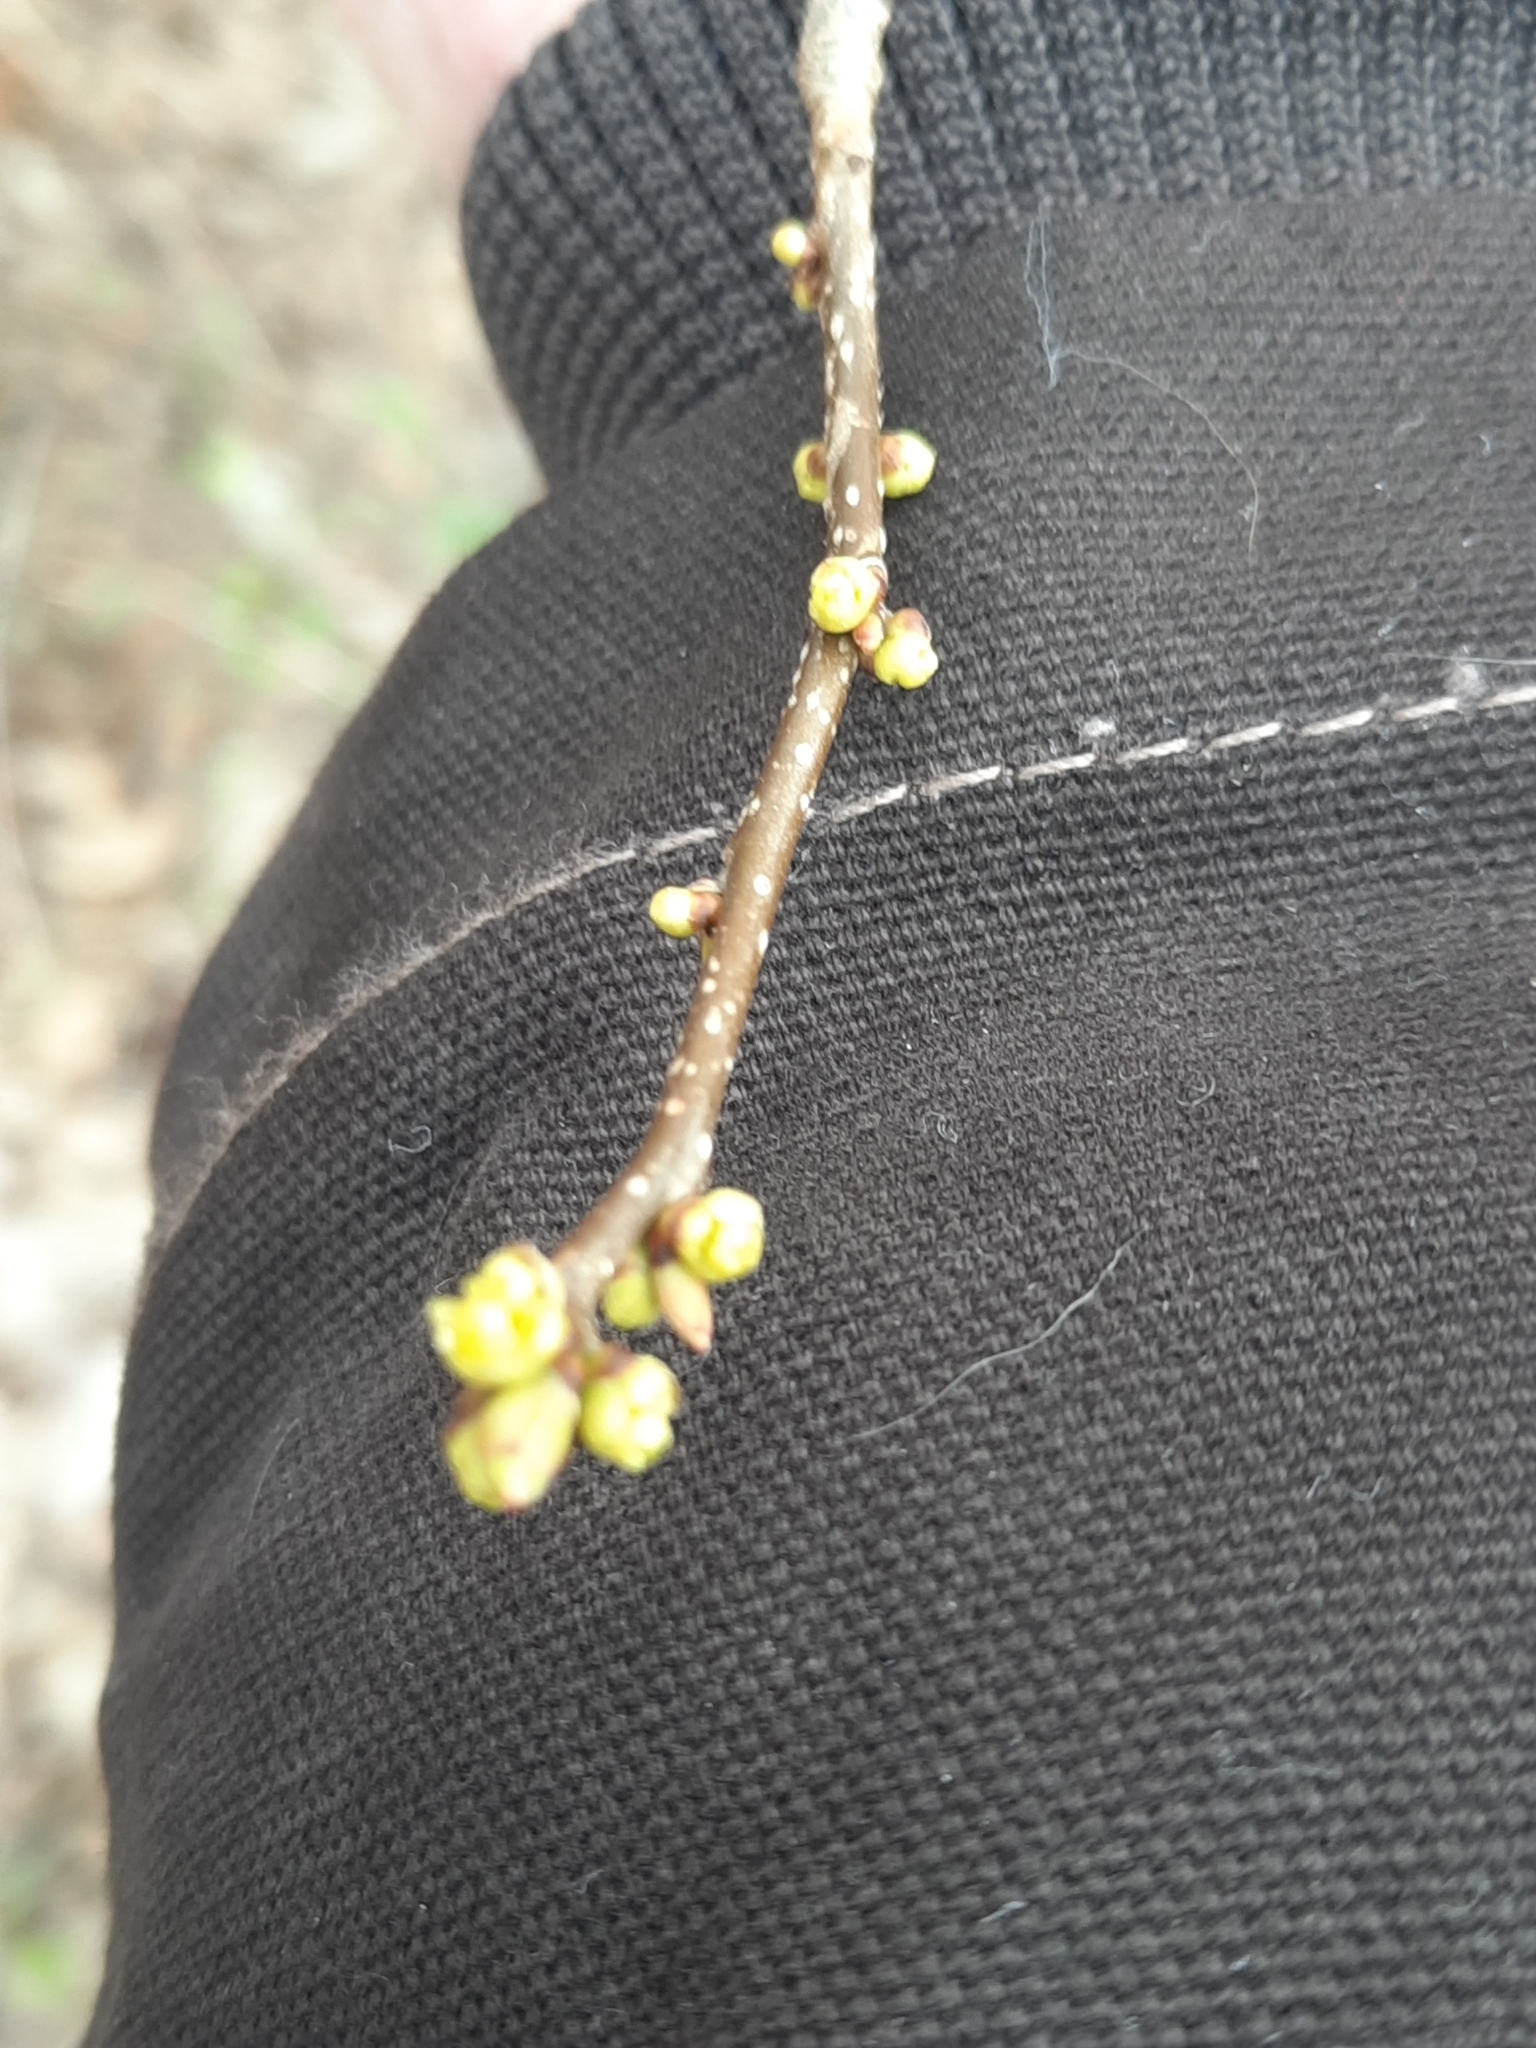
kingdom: Plantae
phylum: Tracheophyta
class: Magnoliopsida
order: Laurales
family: Lauraceae
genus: Lindera
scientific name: Lindera benzoin
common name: Spicebush
